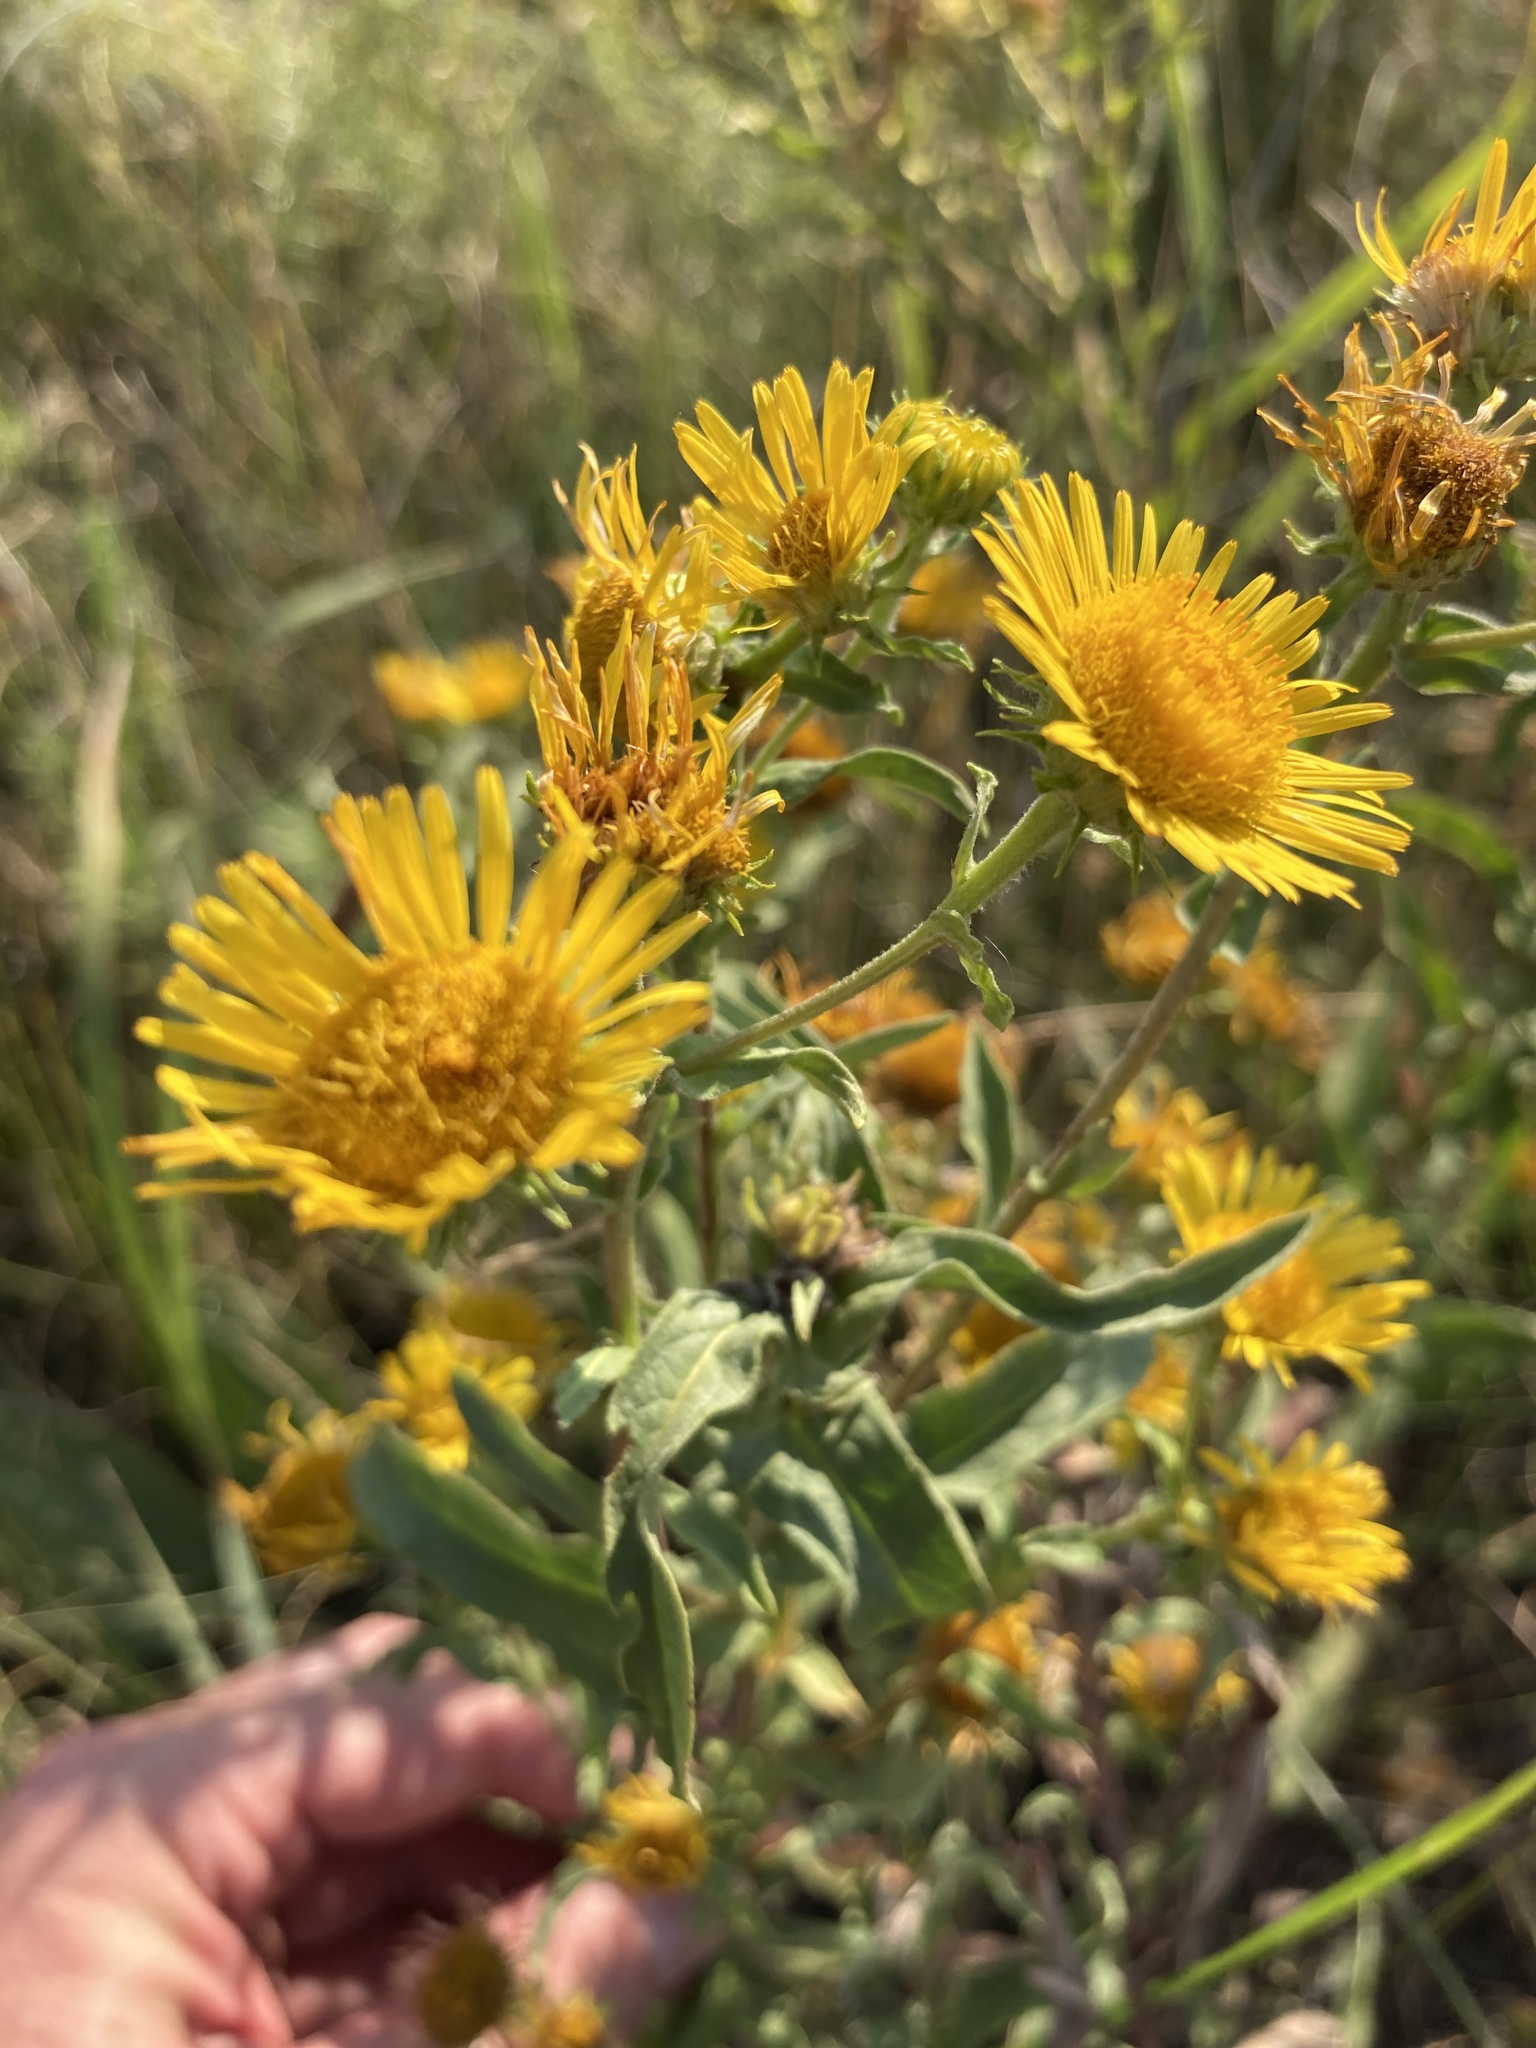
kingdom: Plantae
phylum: Tracheophyta
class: Magnoliopsida
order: Asterales
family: Asteraceae
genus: Pentanema
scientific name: Pentanema britannicum
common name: British elecampane
